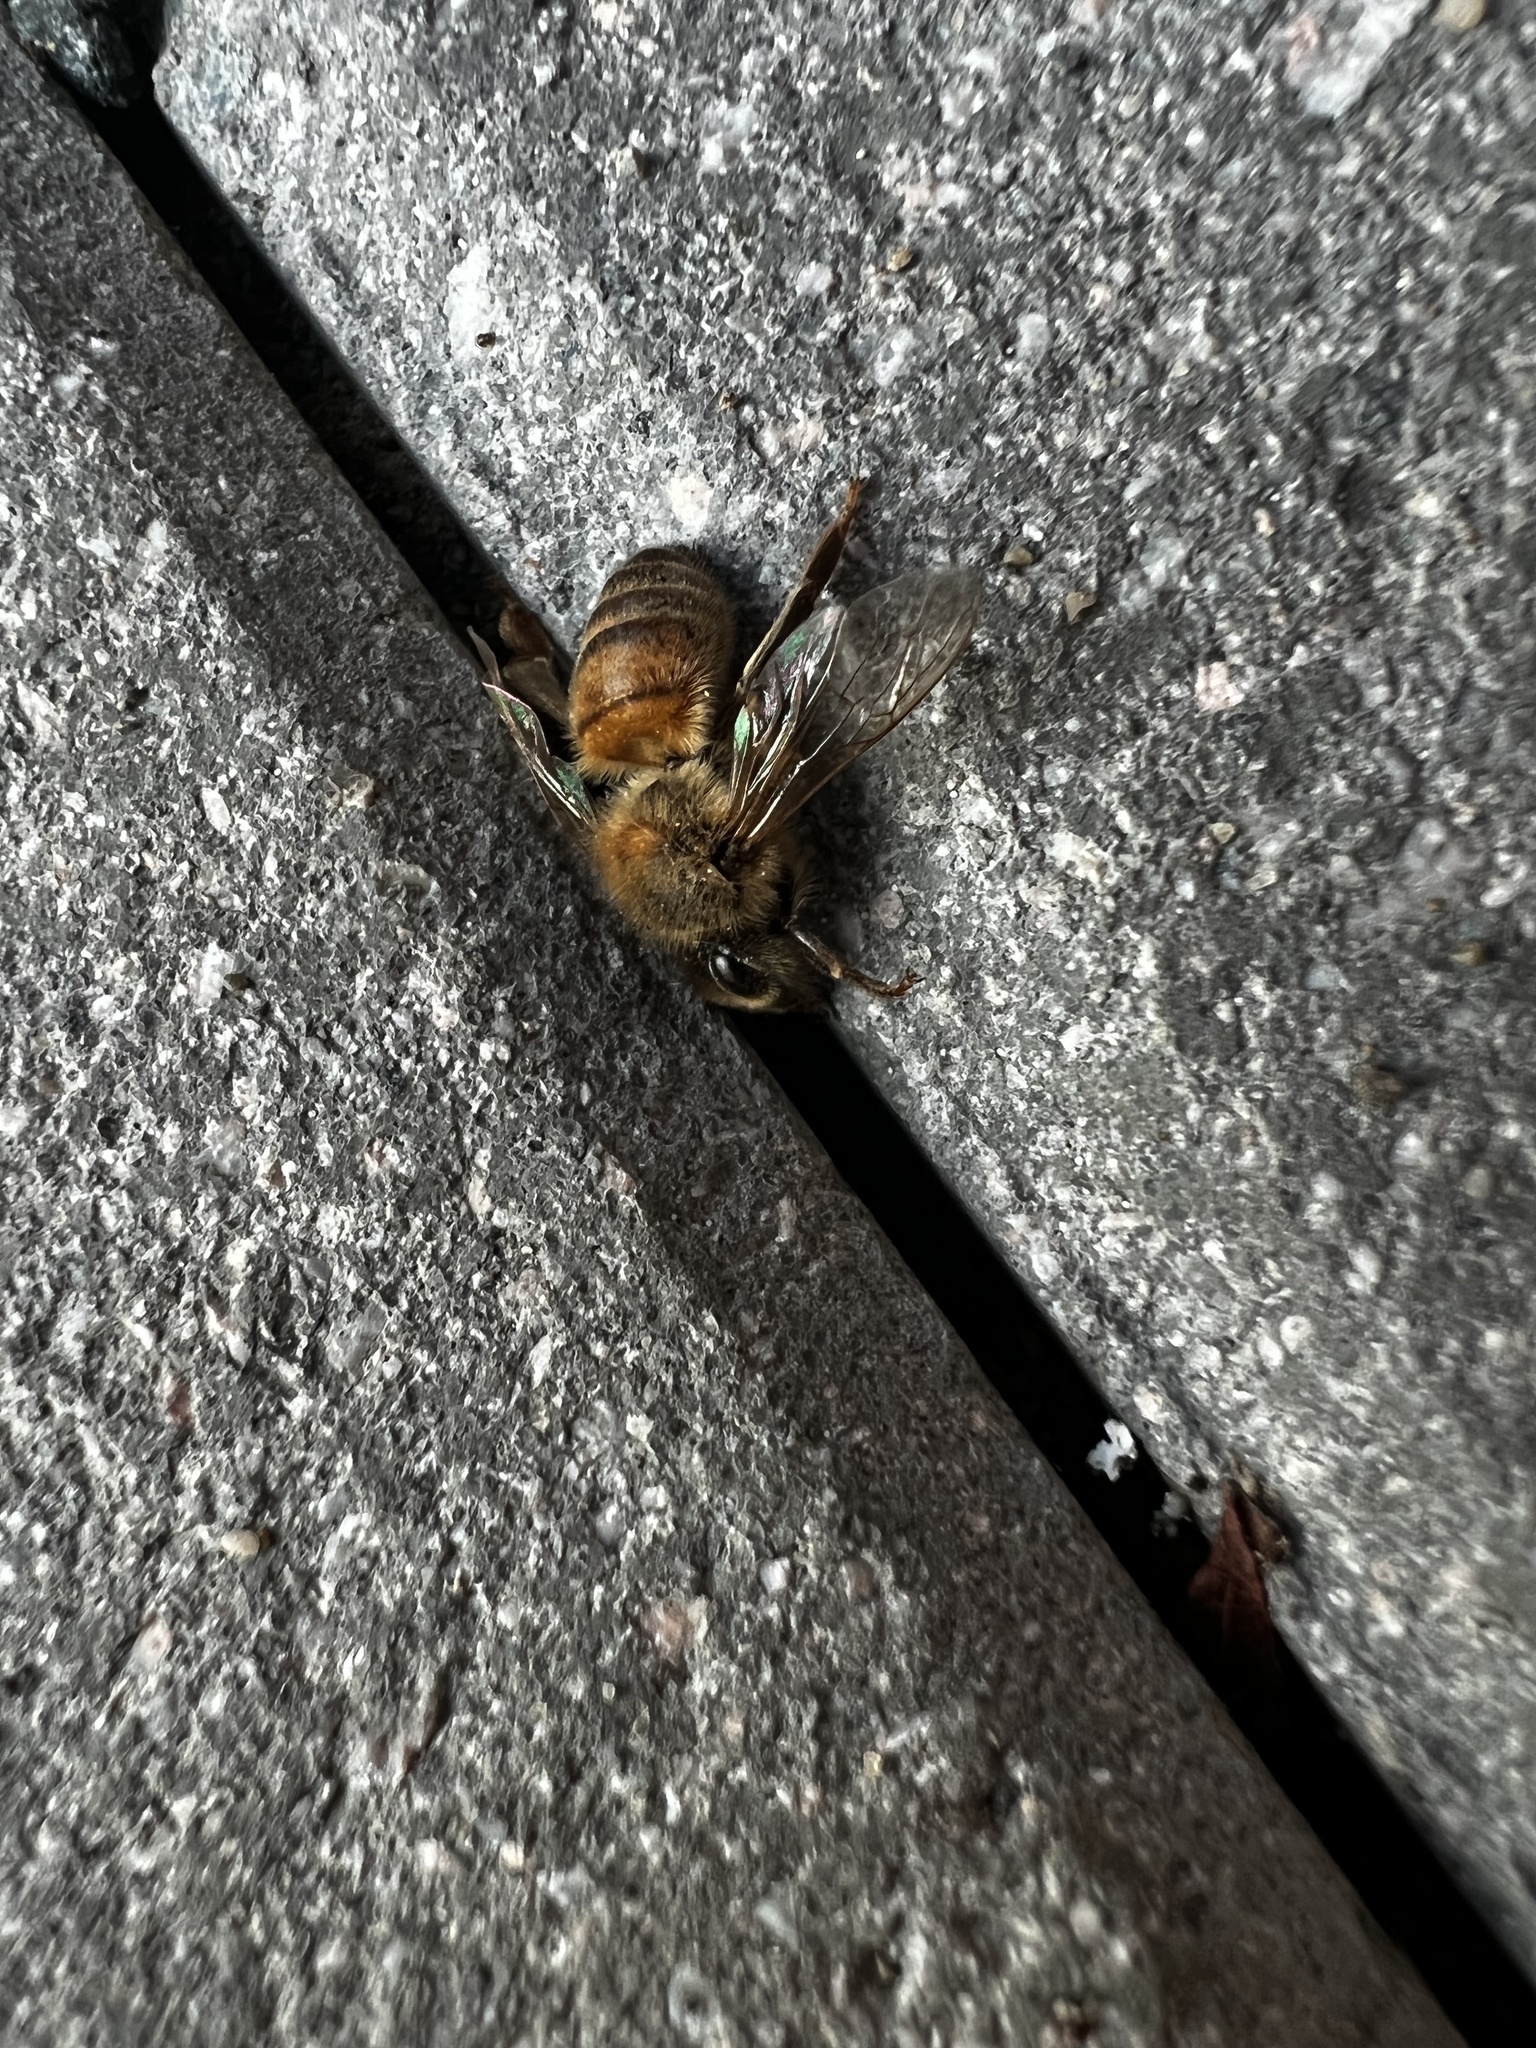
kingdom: Animalia
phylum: Arthropoda
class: Insecta
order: Hymenoptera
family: Apidae
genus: Apis
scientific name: Apis mellifera
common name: Honey bee
